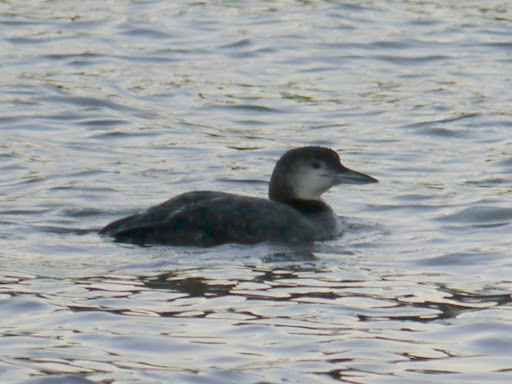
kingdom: Animalia
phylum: Chordata
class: Aves
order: Gaviiformes
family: Gaviidae
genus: Gavia
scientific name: Gavia immer
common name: Common loon
